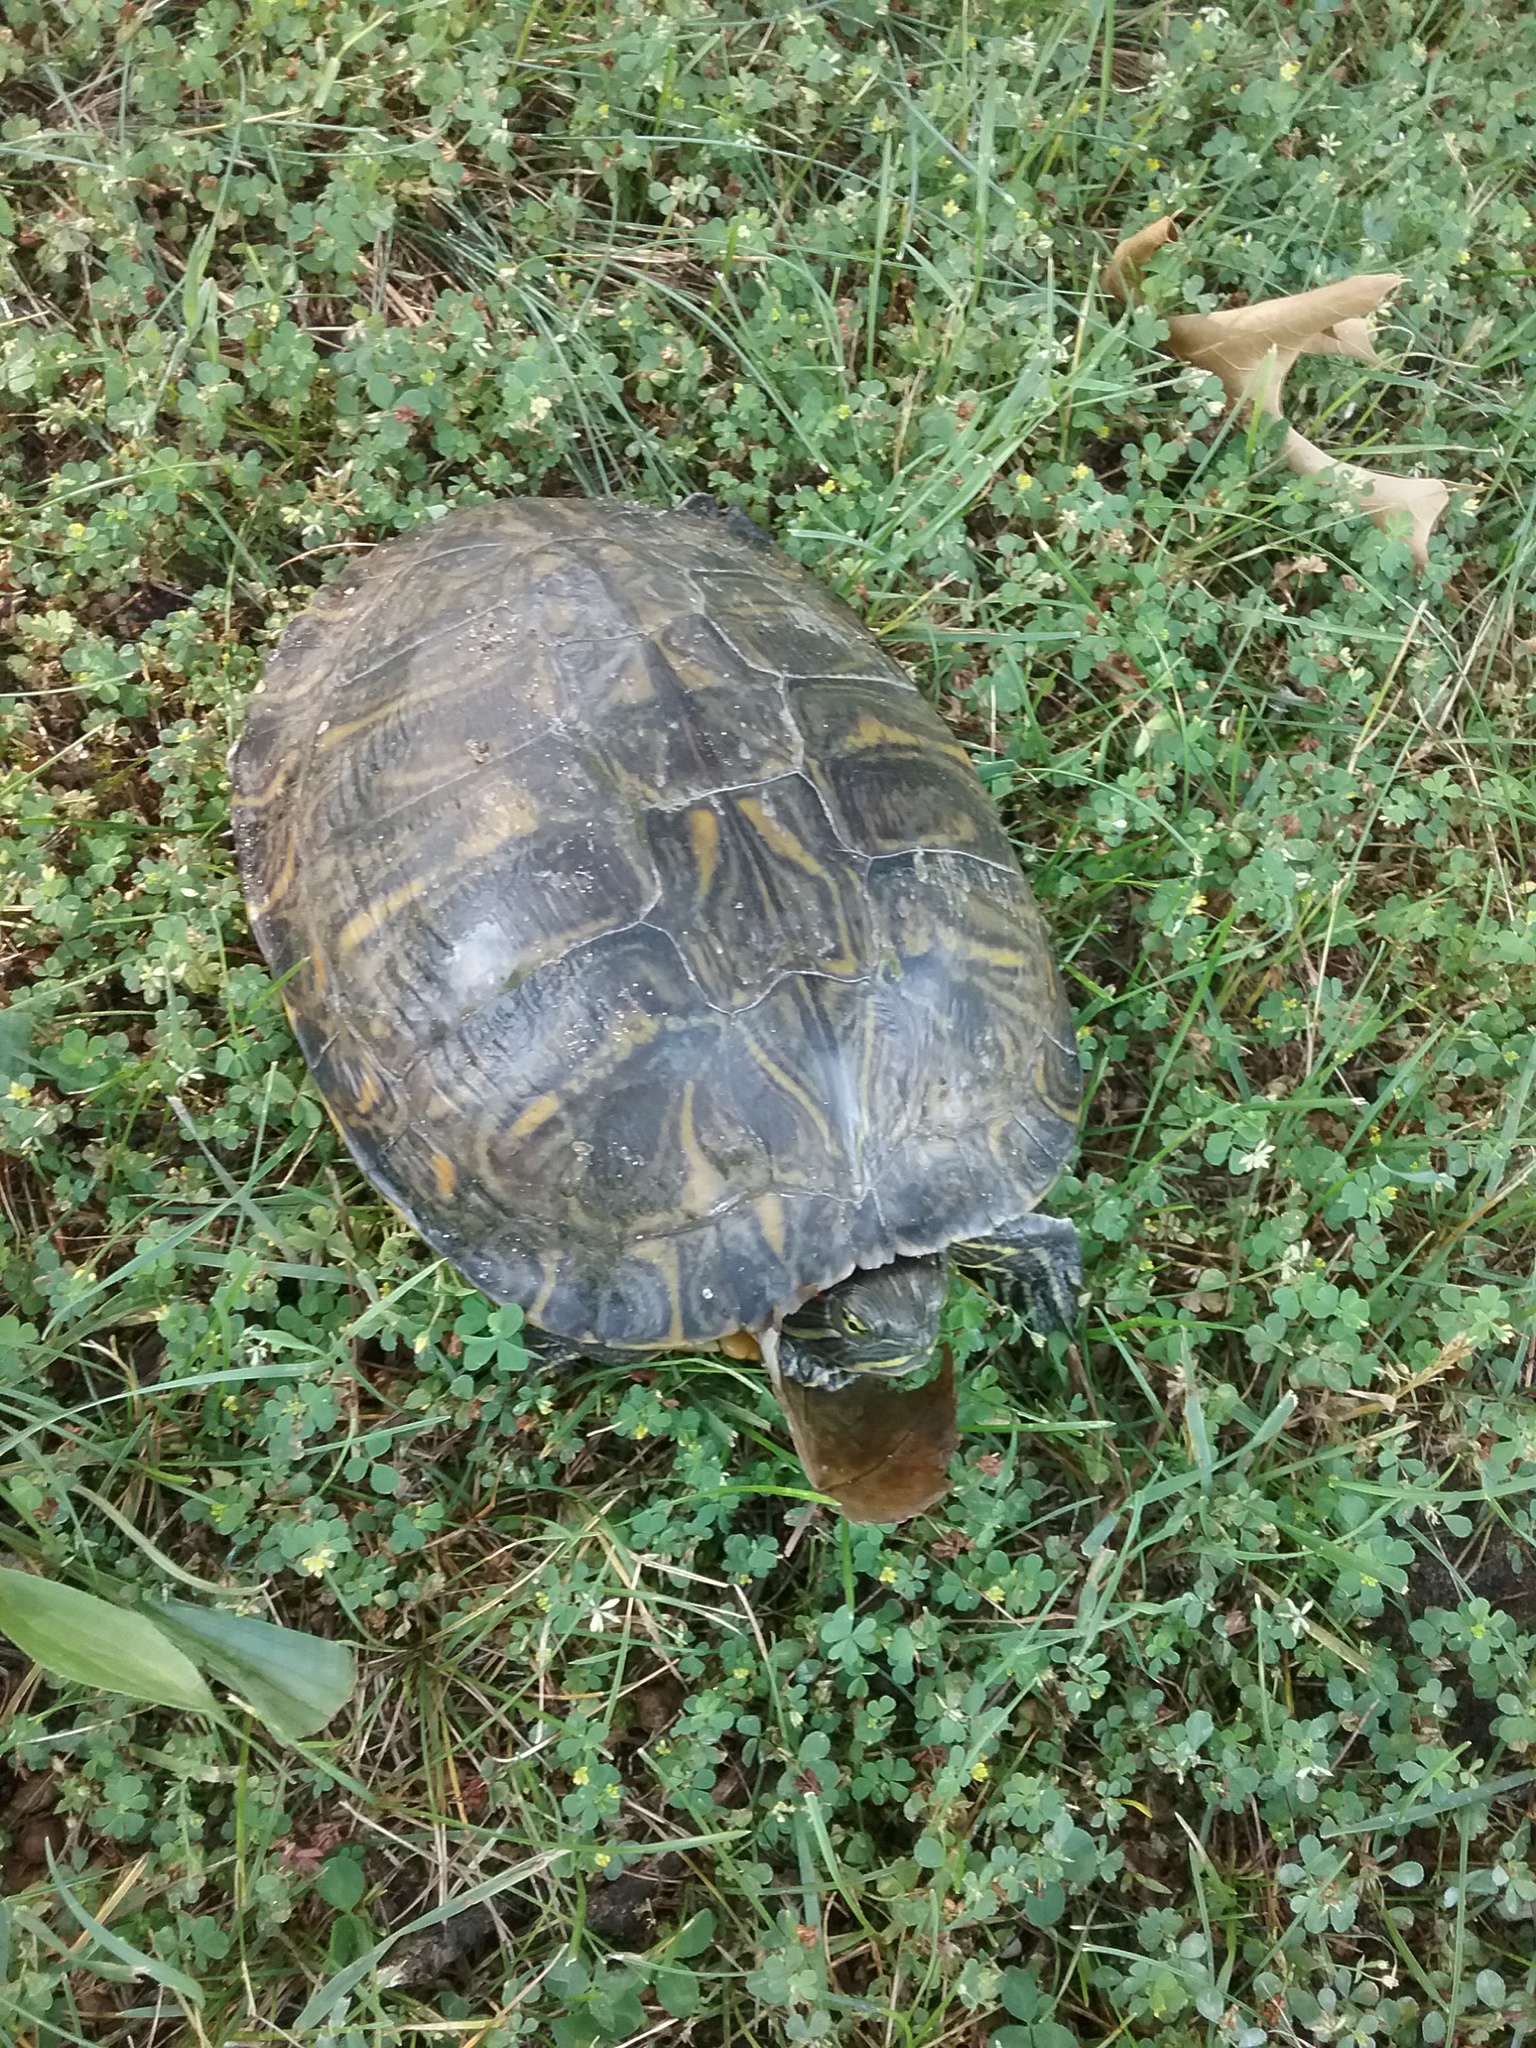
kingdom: Animalia
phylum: Chordata
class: Testudines
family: Emydidae
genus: Trachemys
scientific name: Trachemys scripta
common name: Slider
